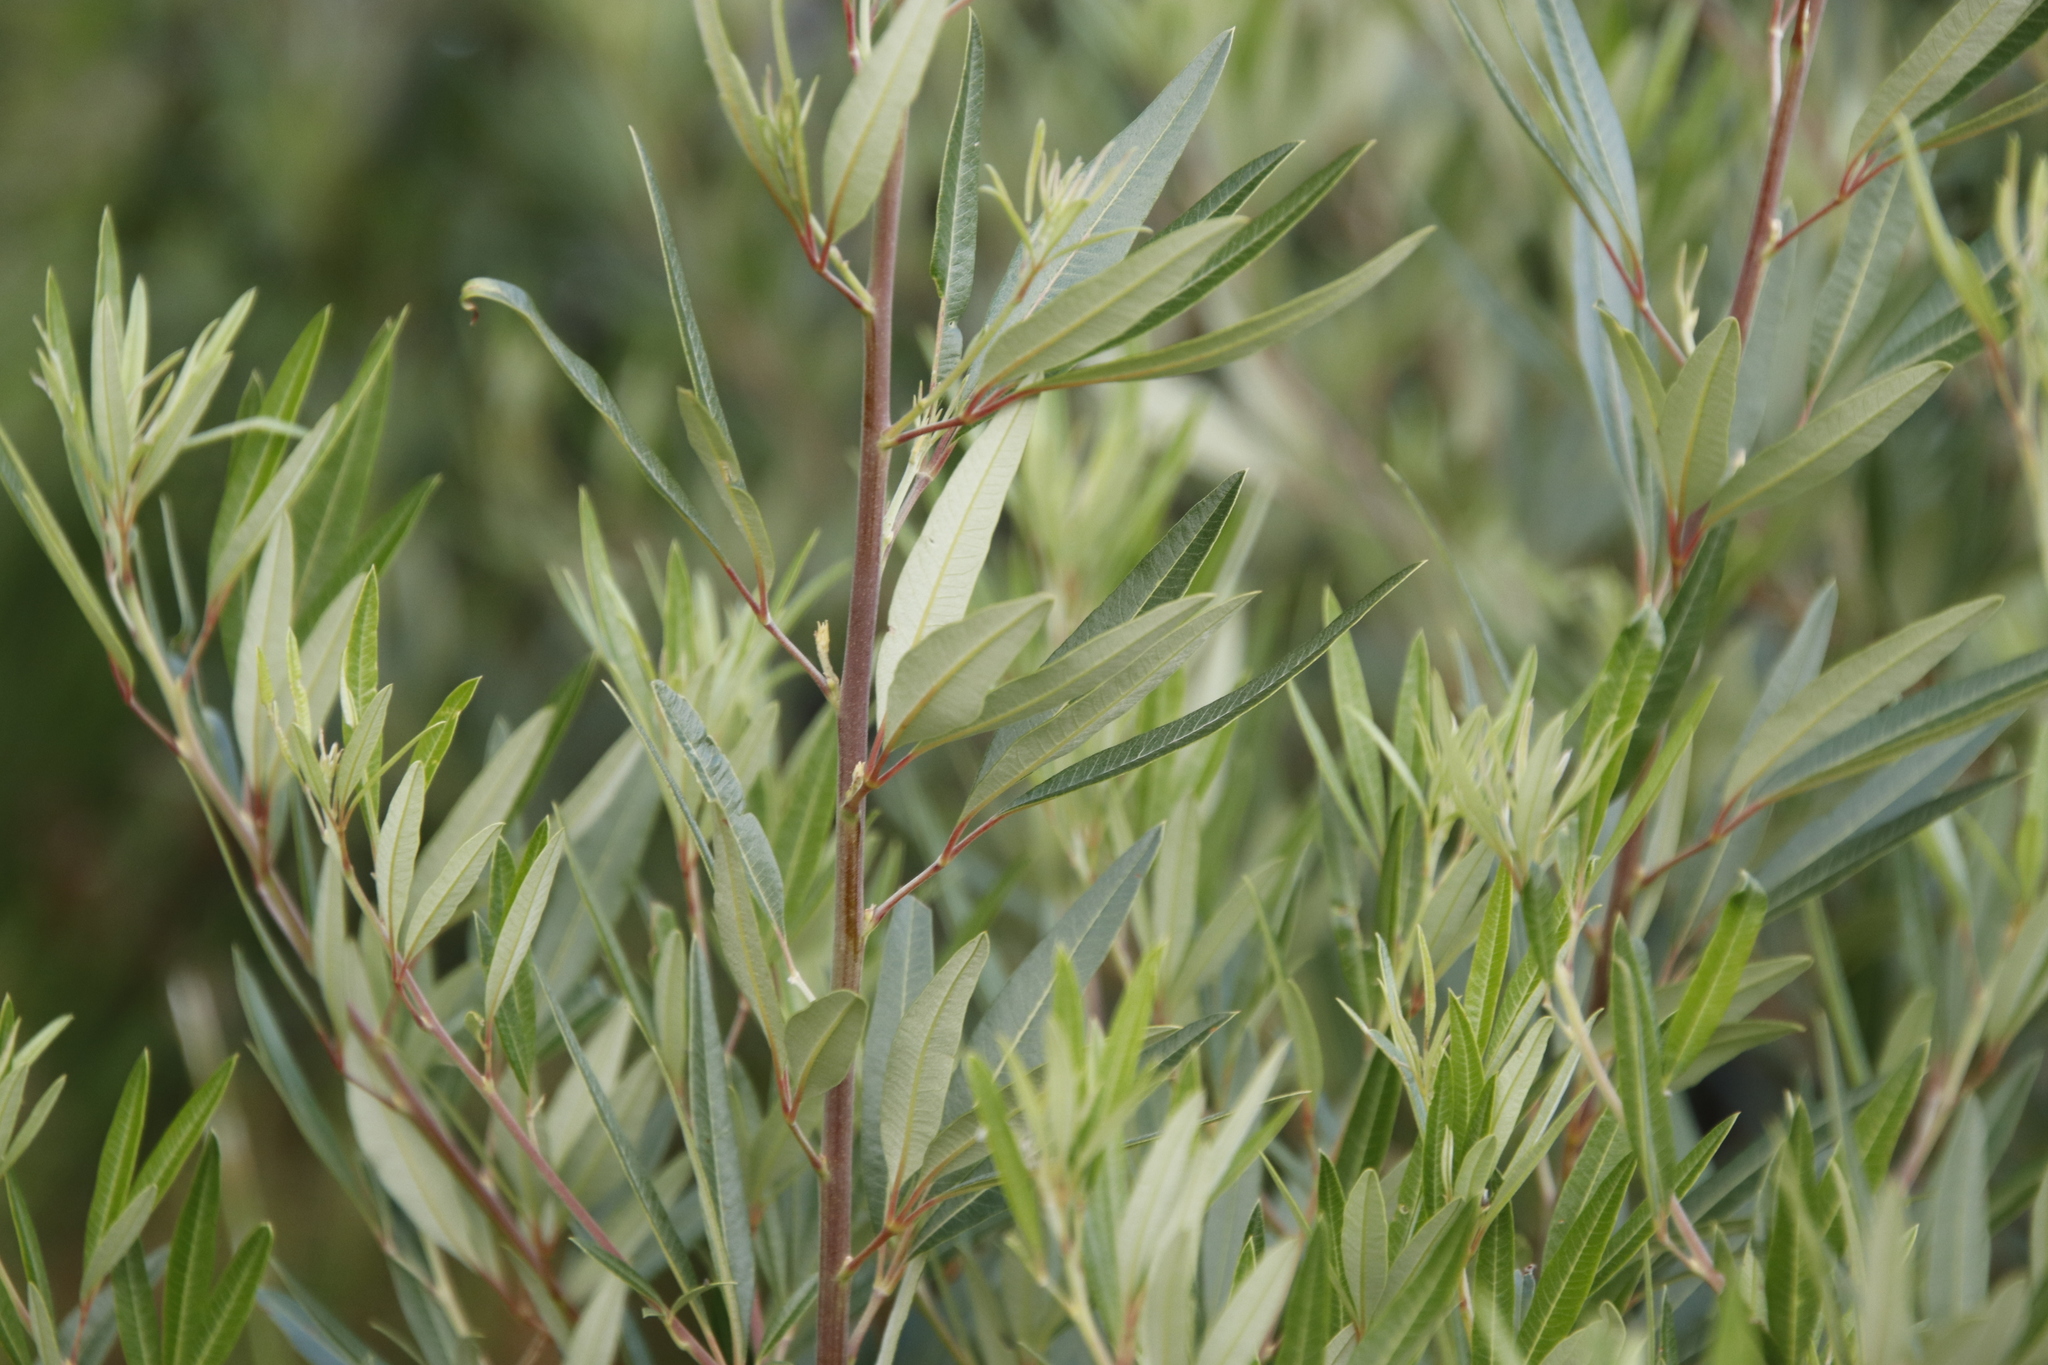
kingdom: Plantae
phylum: Tracheophyta
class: Magnoliopsida
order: Sapindales
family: Anacardiaceae
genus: Searsia
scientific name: Searsia angustifolia
